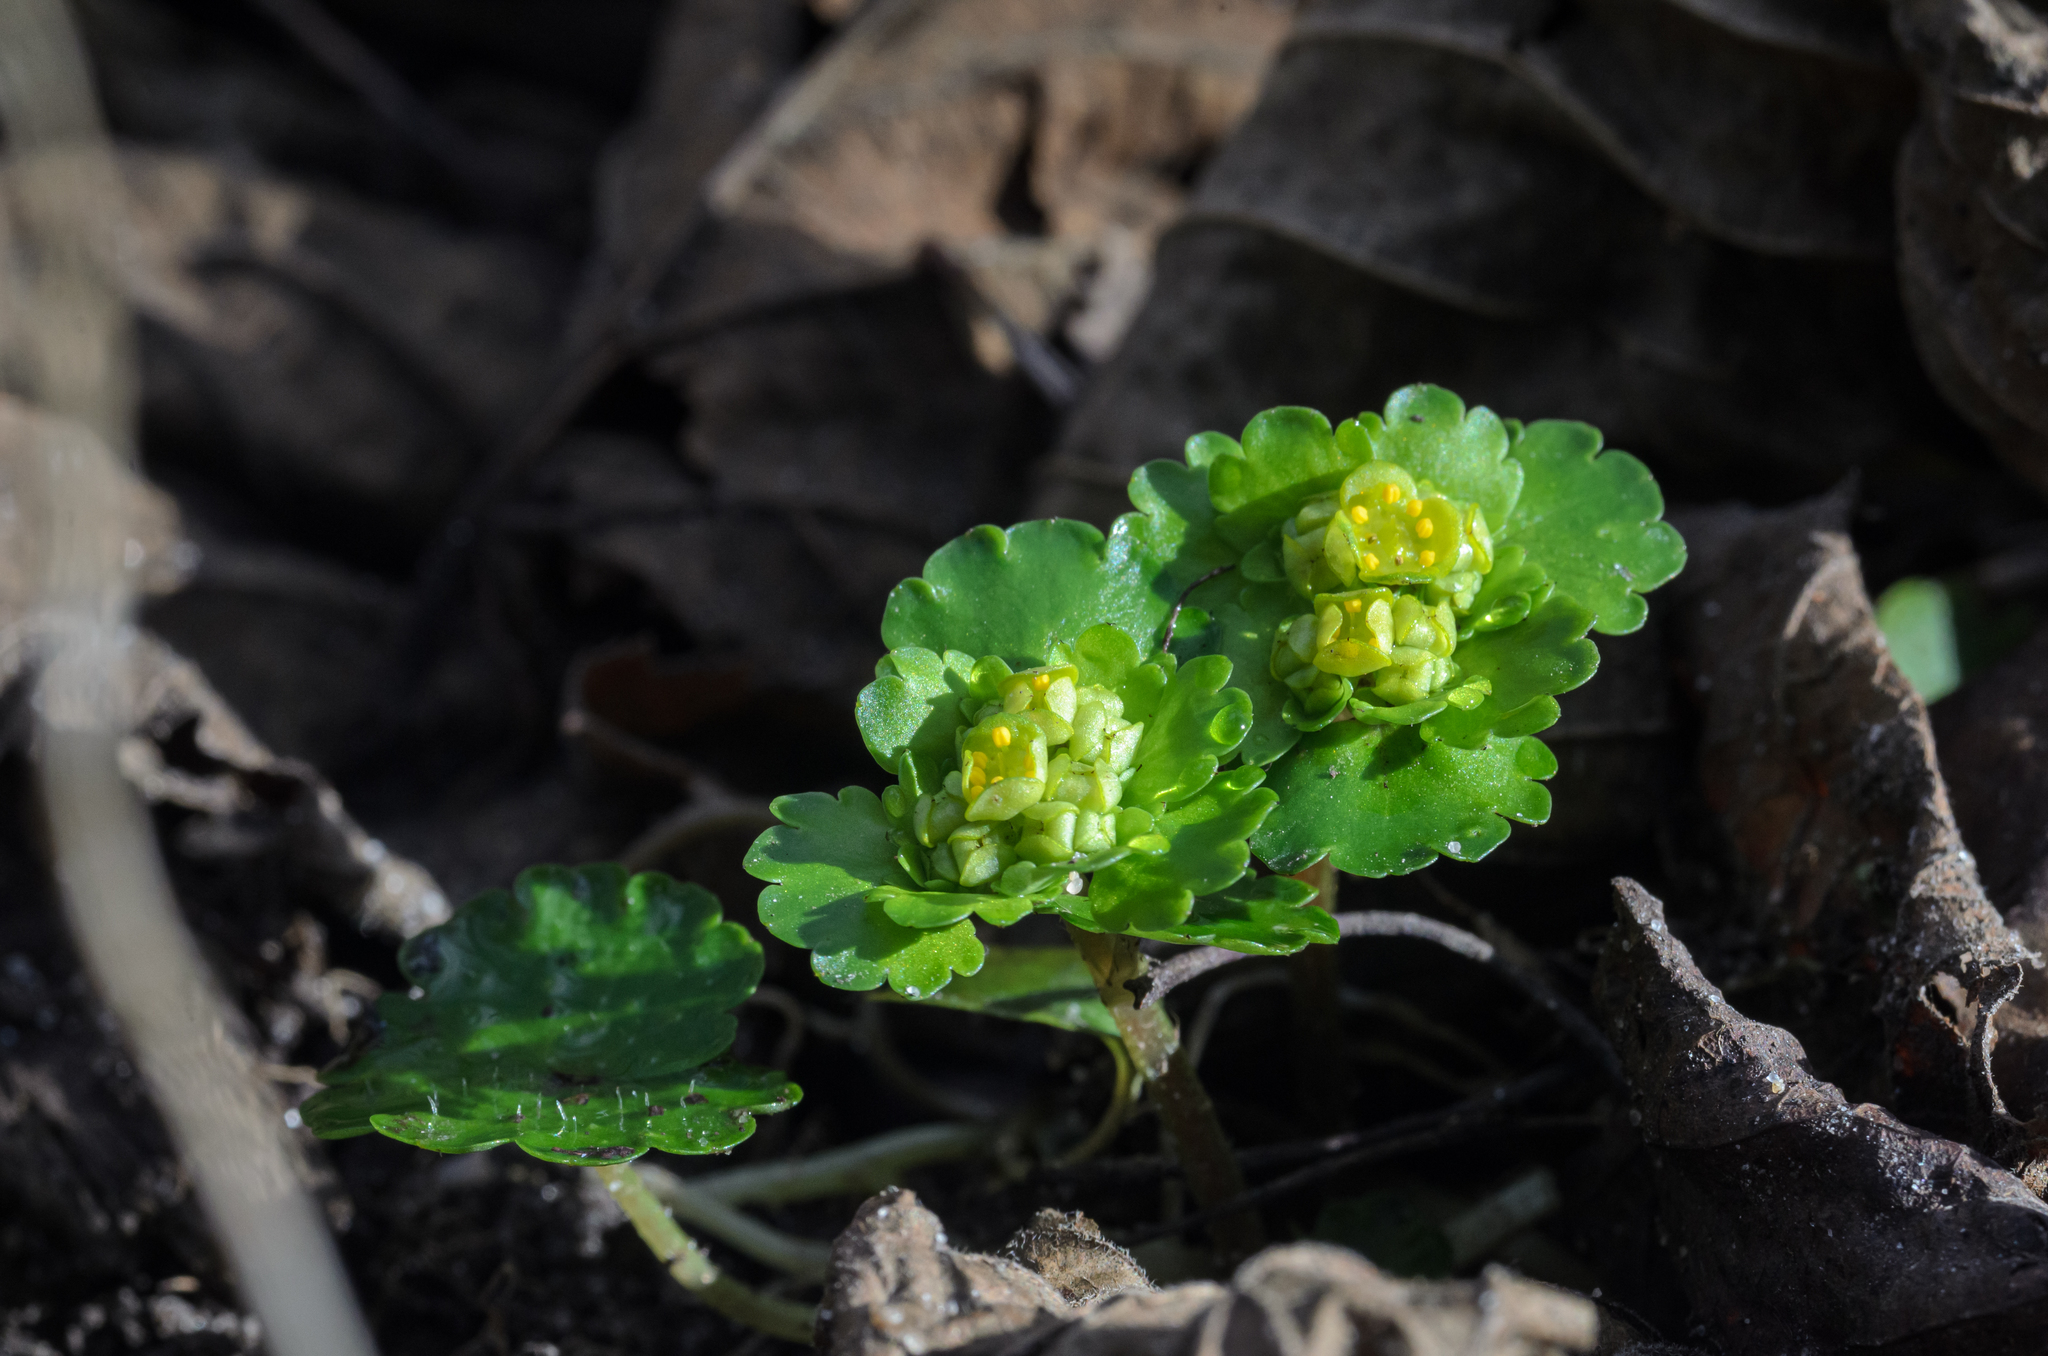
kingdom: Plantae
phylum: Tracheophyta
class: Magnoliopsida
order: Saxifragales
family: Saxifragaceae
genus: Chrysosplenium
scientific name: Chrysosplenium alternifolium
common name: Alternate-leaved golden-saxifrage
